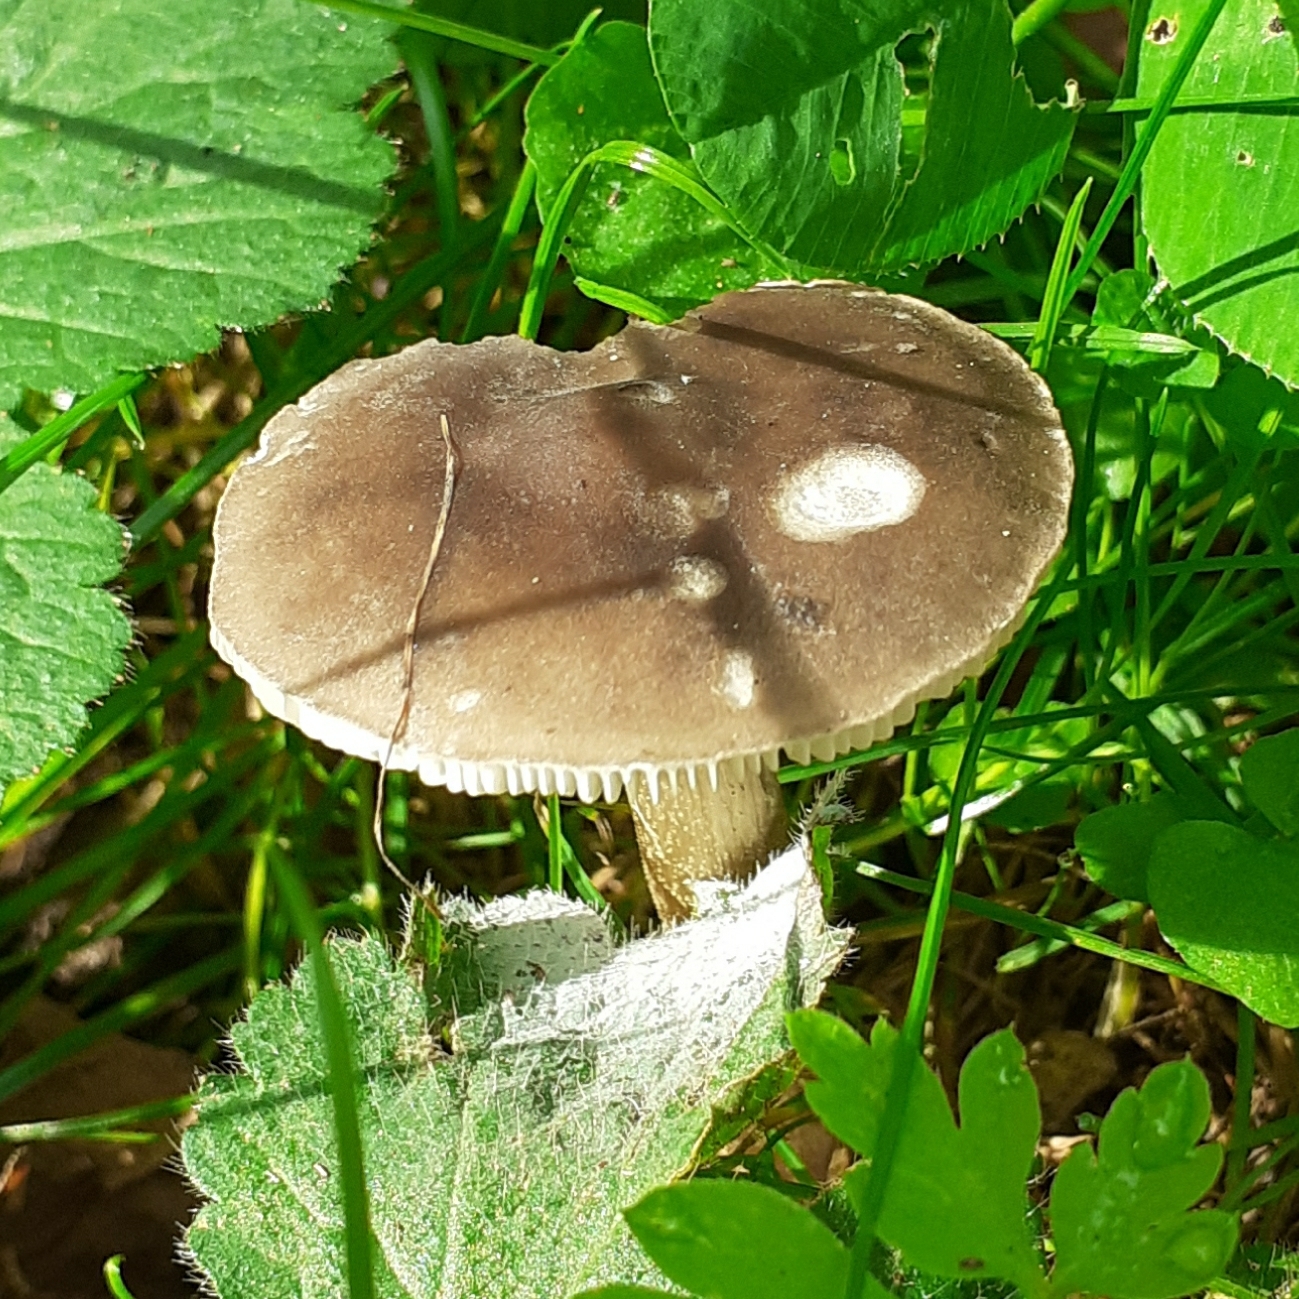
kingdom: Fungi
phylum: Basidiomycota
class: Agaricomycetes
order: Agaricales
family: Tricholomataceae
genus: Melanoleuca
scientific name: Melanoleuca
